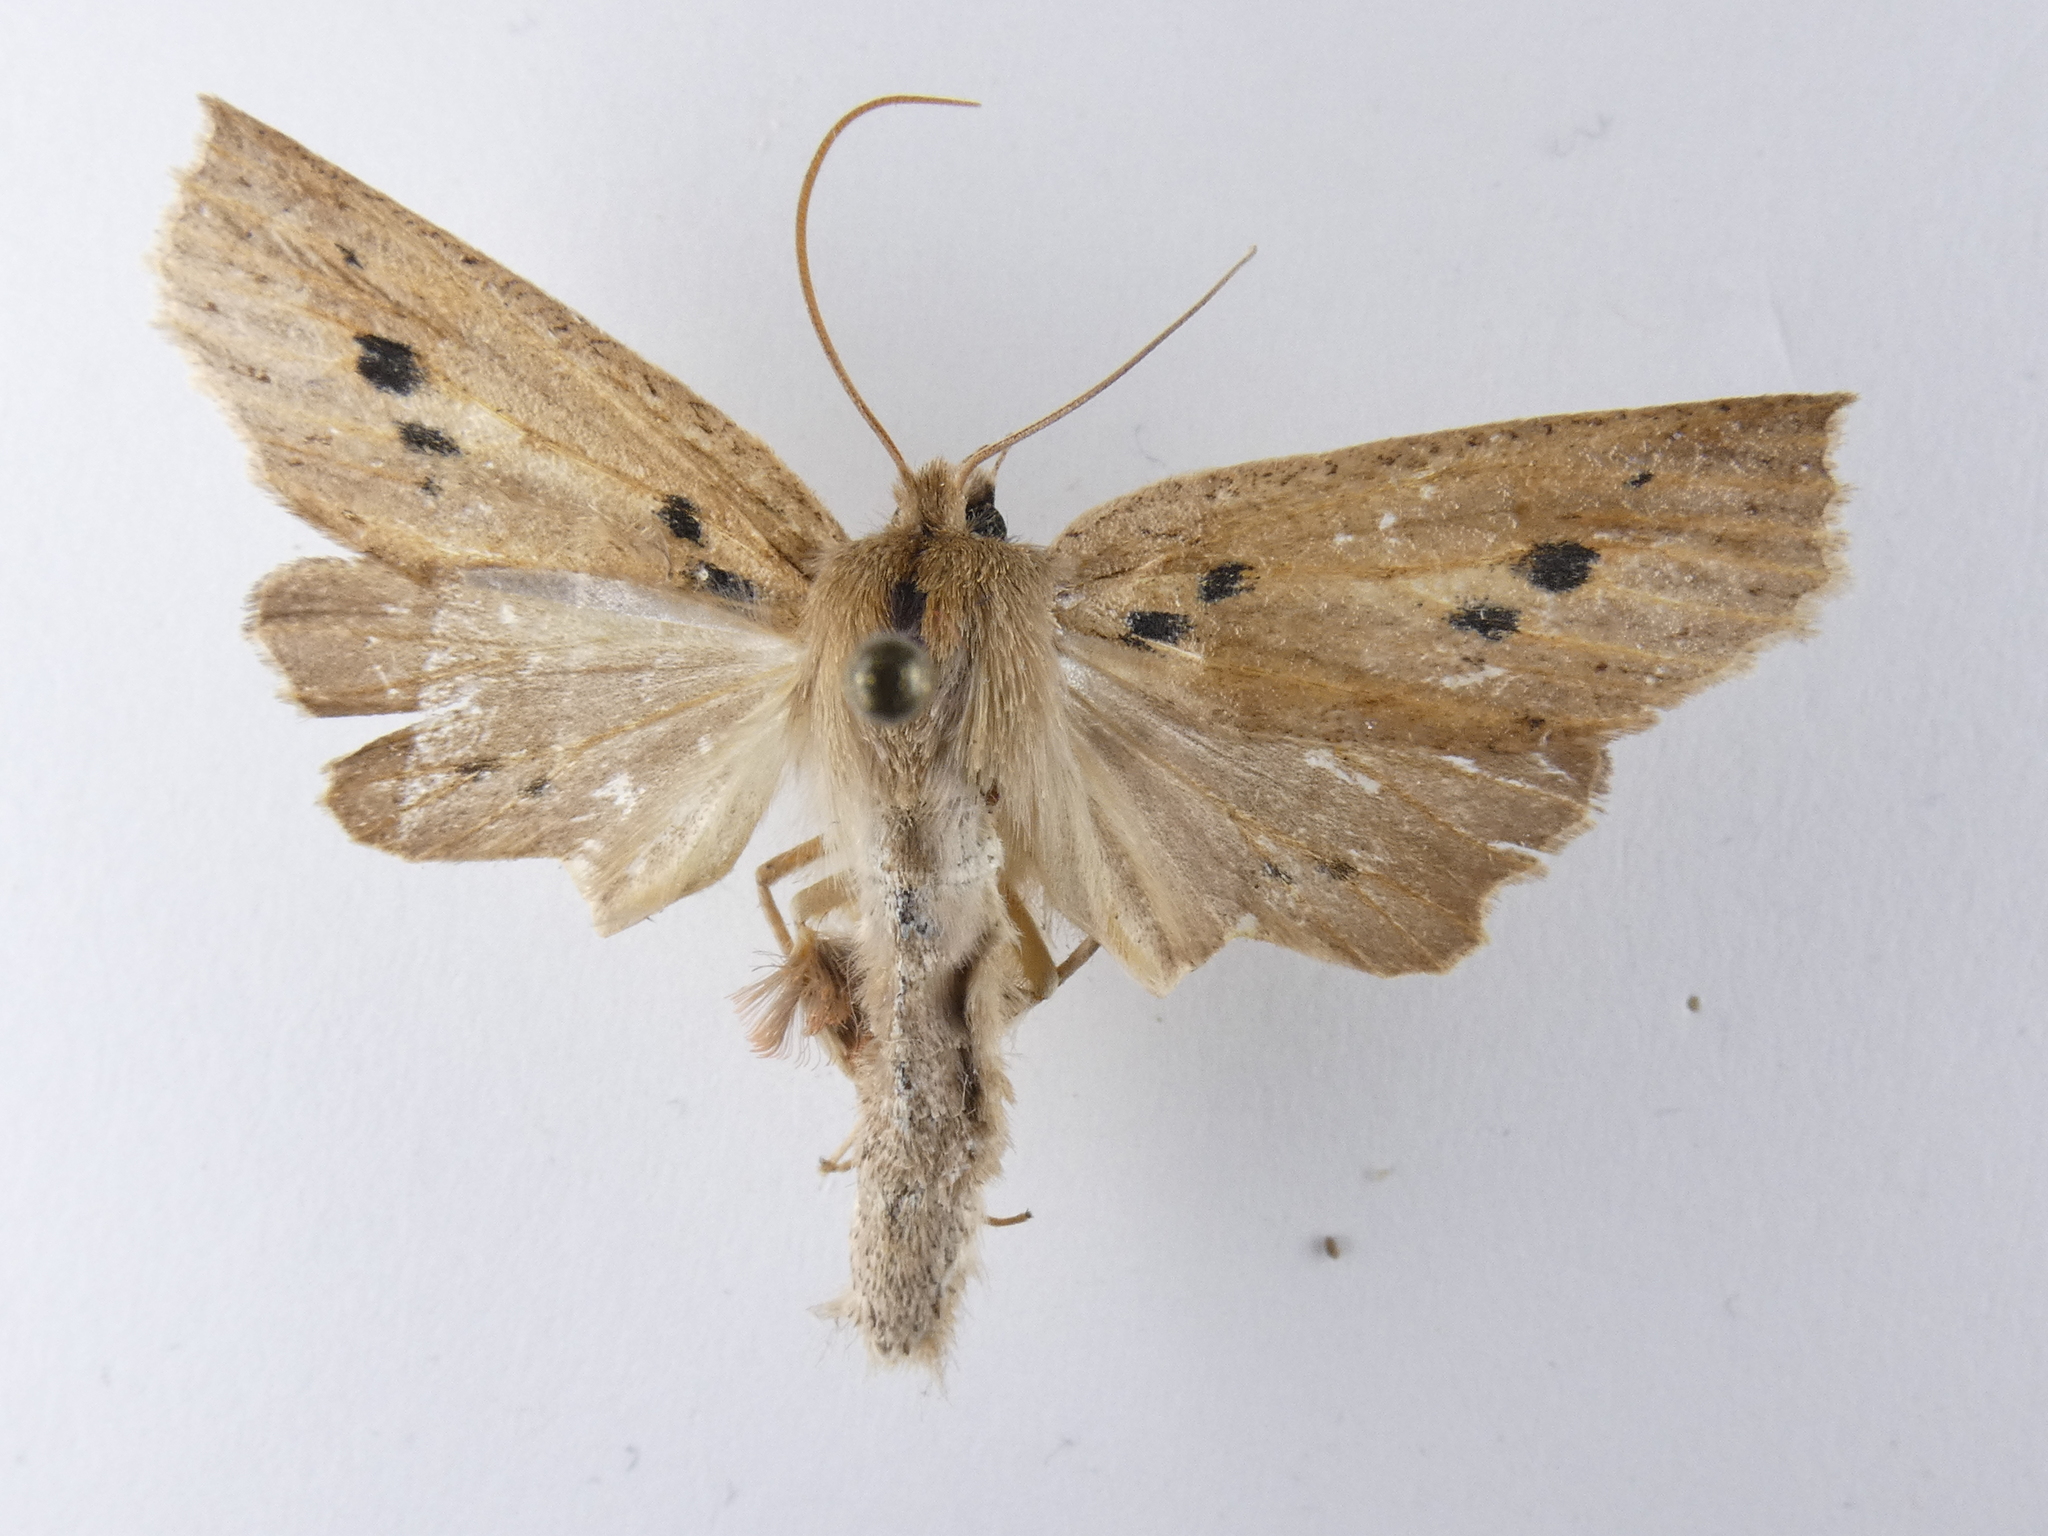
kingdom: Animalia
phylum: Arthropoda
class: Insecta
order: Lepidoptera
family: Geometridae
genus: Declana
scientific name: Declana leptomera
